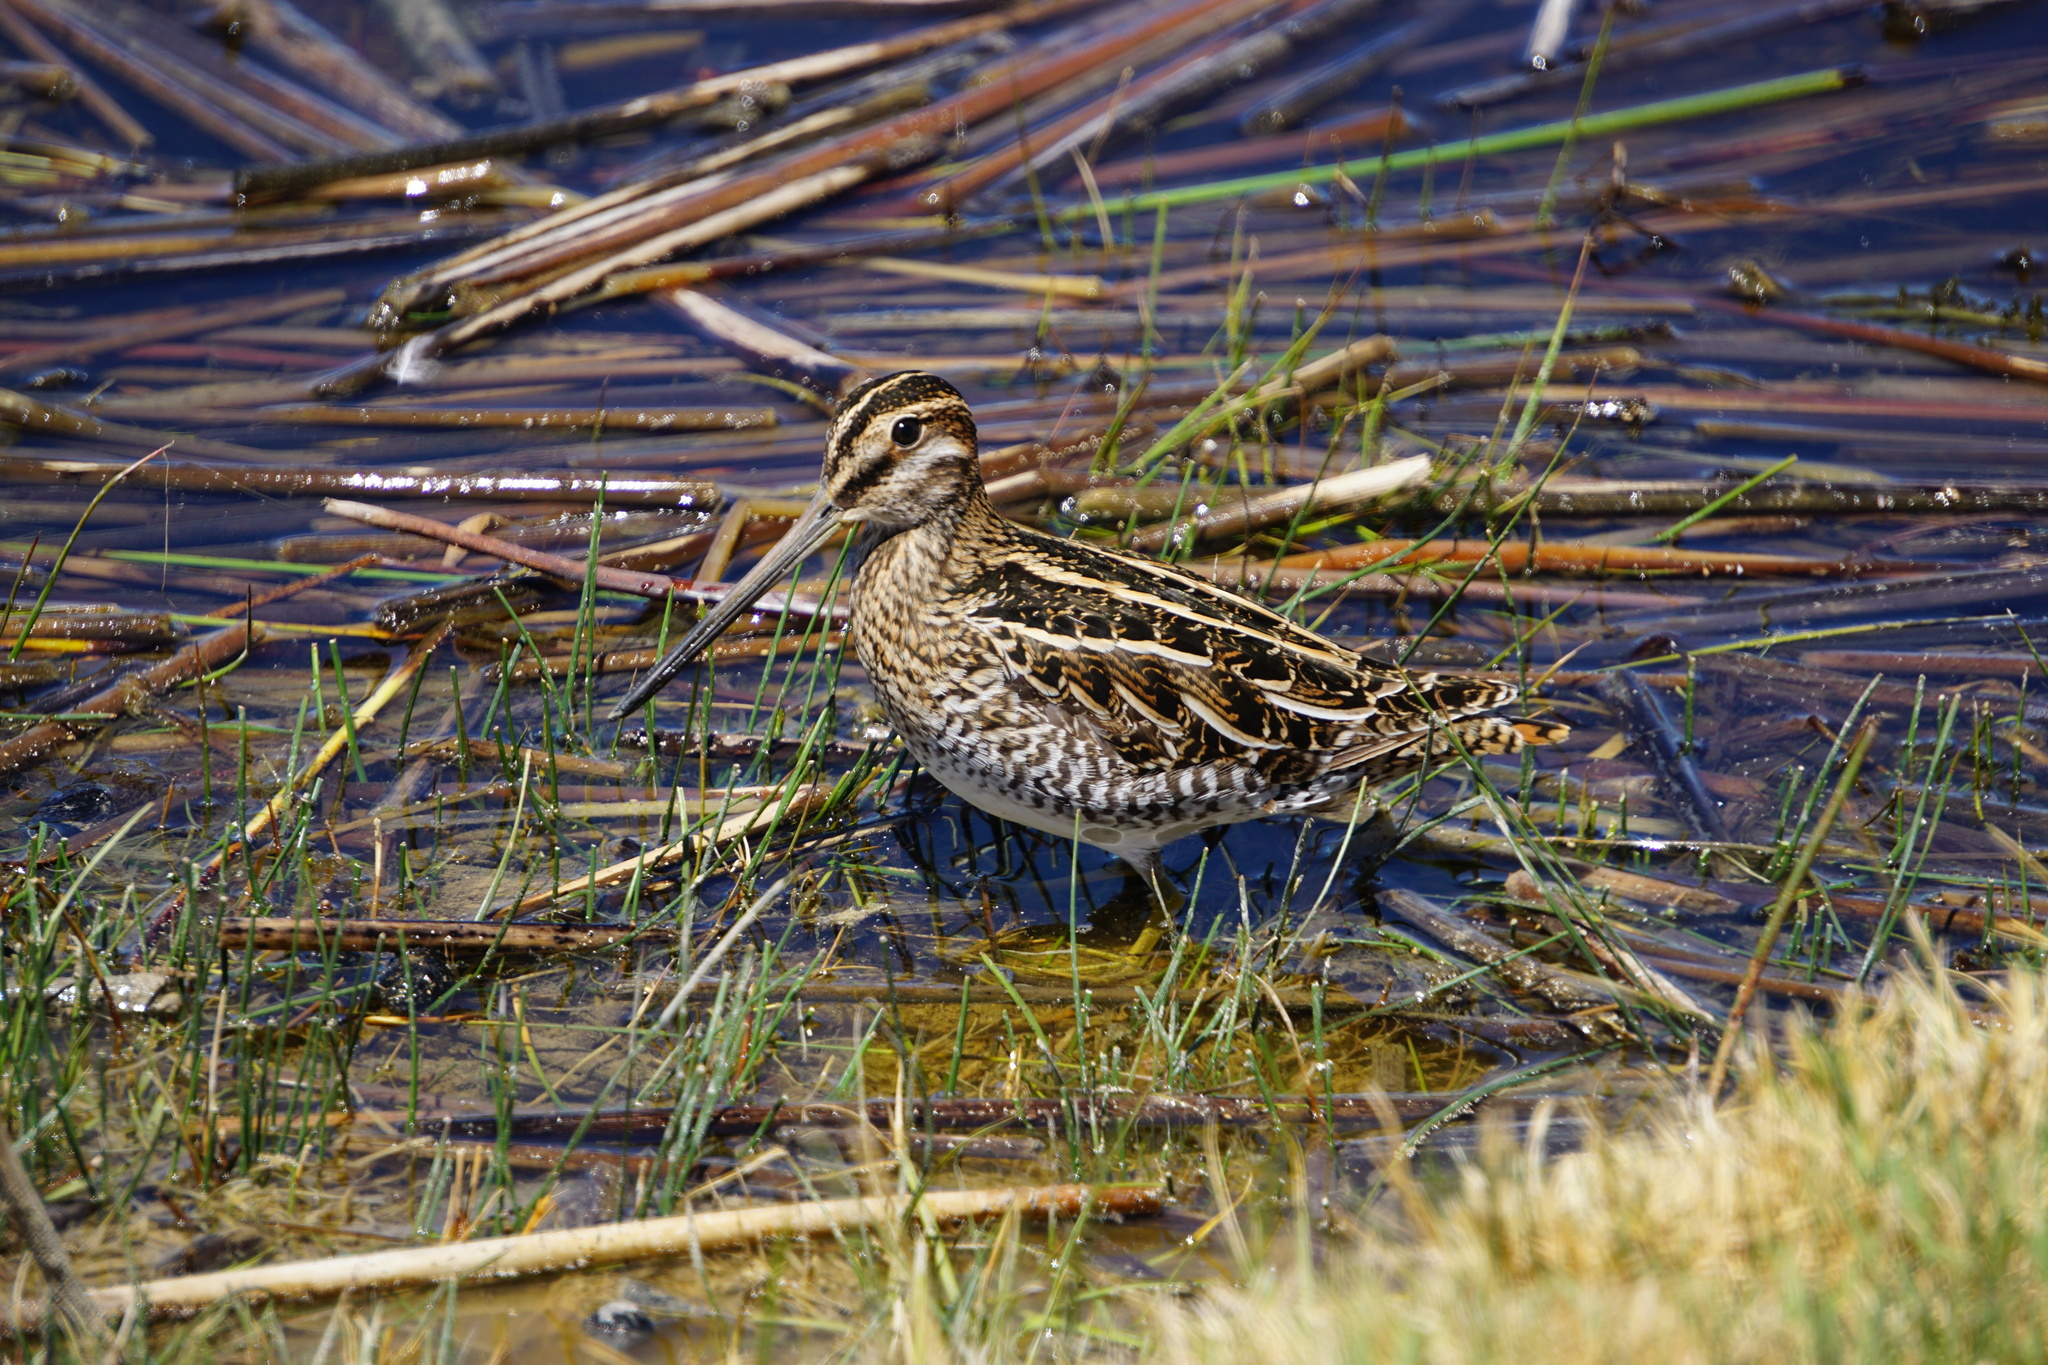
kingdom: Animalia
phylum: Chordata
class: Aves
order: Charadriiformes
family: Scolopacidae
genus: Gallinago
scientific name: Gallinago delicata
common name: Wilson's snipe
